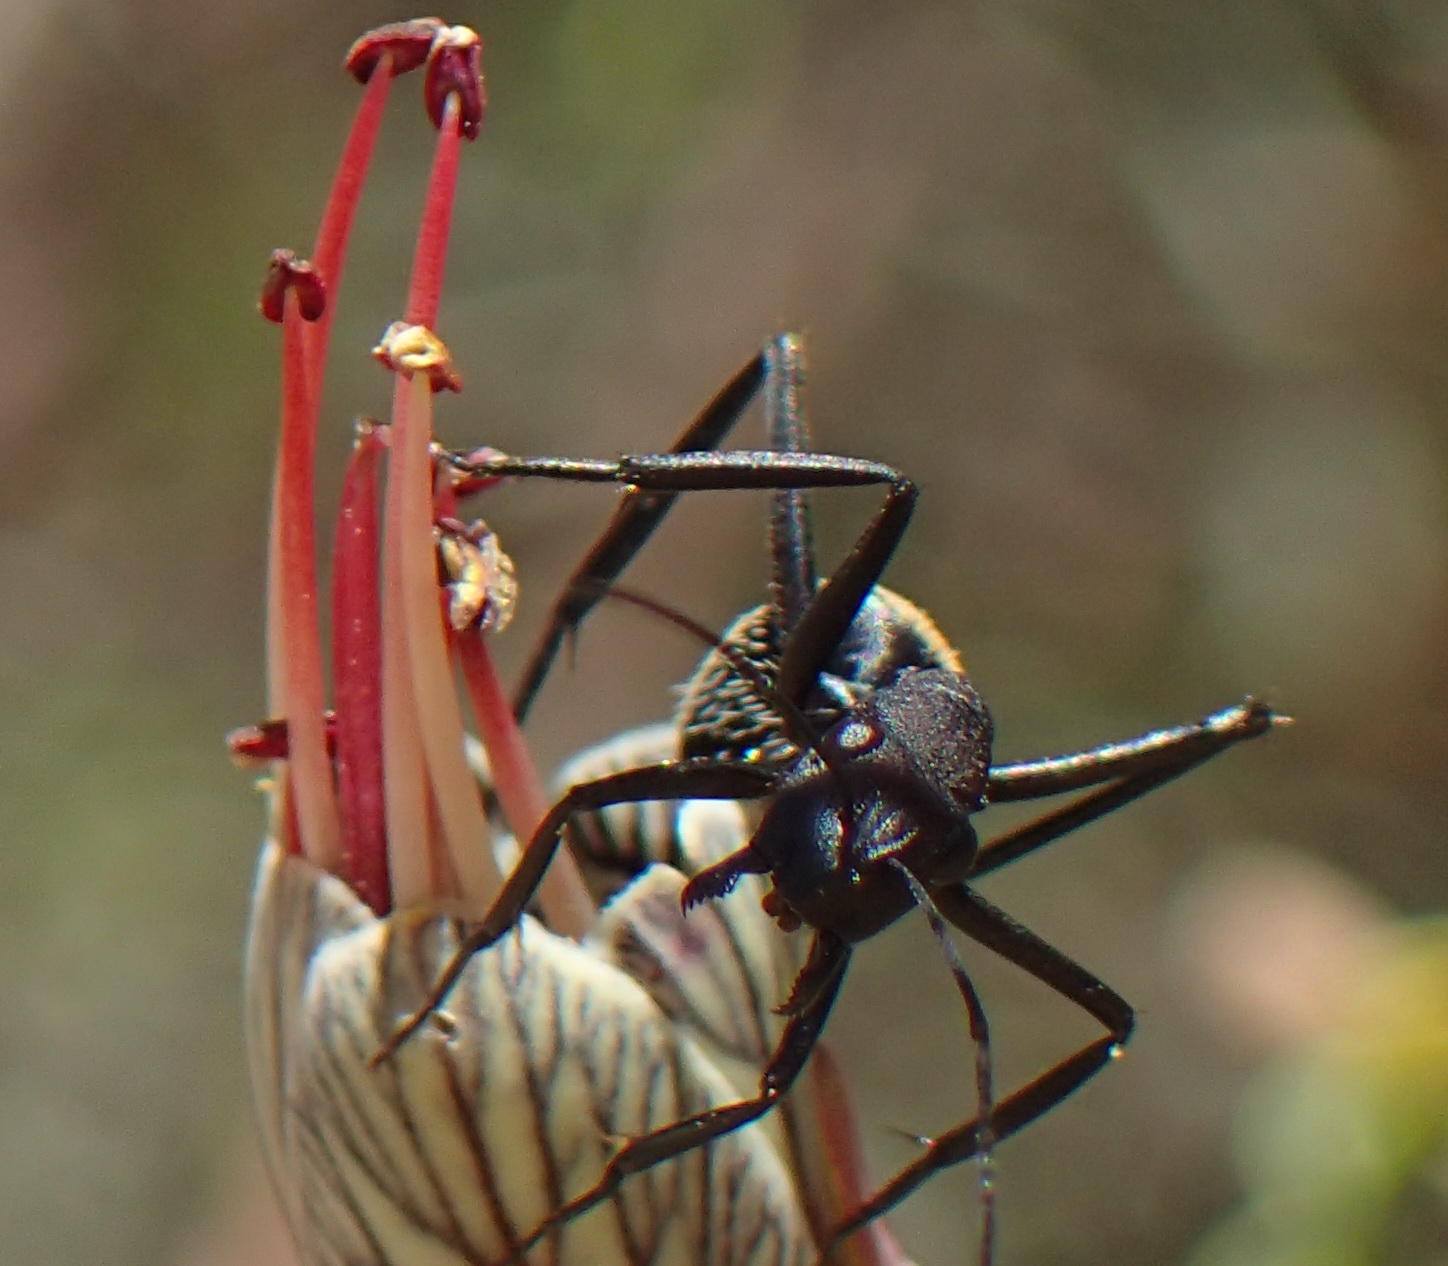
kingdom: Animalia
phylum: Arthropoda
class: Insecta
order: Hymenoptera
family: Formicidae
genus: Camponotus
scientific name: Camponotus fulvopilosus
